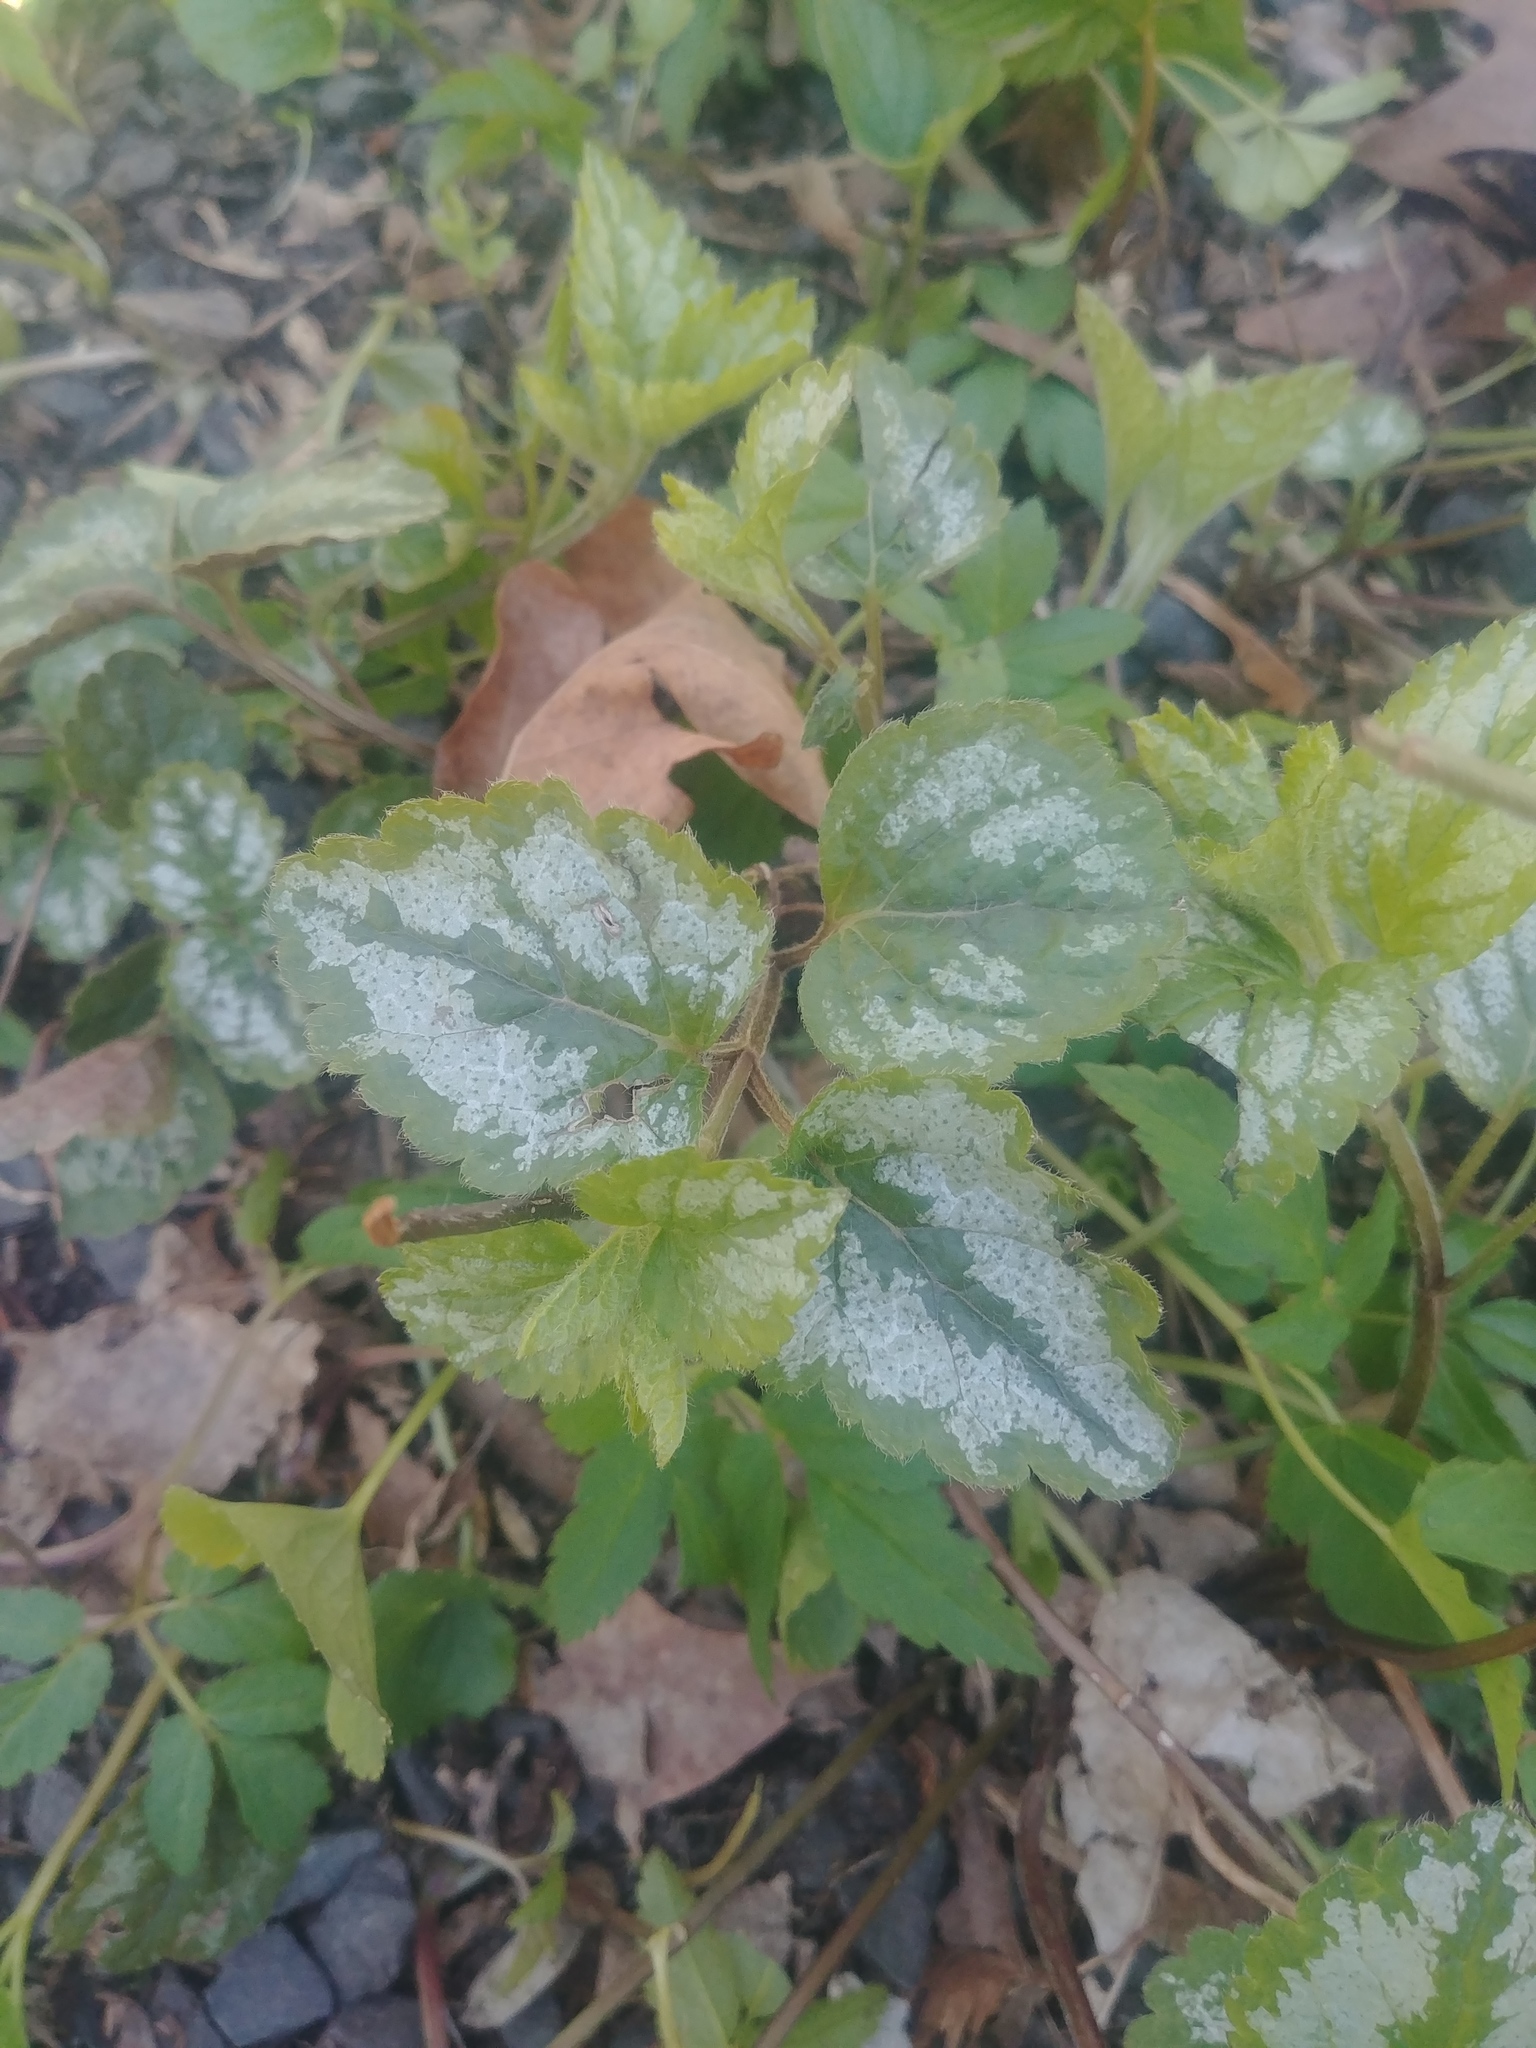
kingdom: Plantae
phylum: Tracheophyta
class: Magnoliopsida
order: Lamiales
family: Lamiaceae
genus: Lamium
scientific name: Lamium galeobdolon
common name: Yellow archangel
